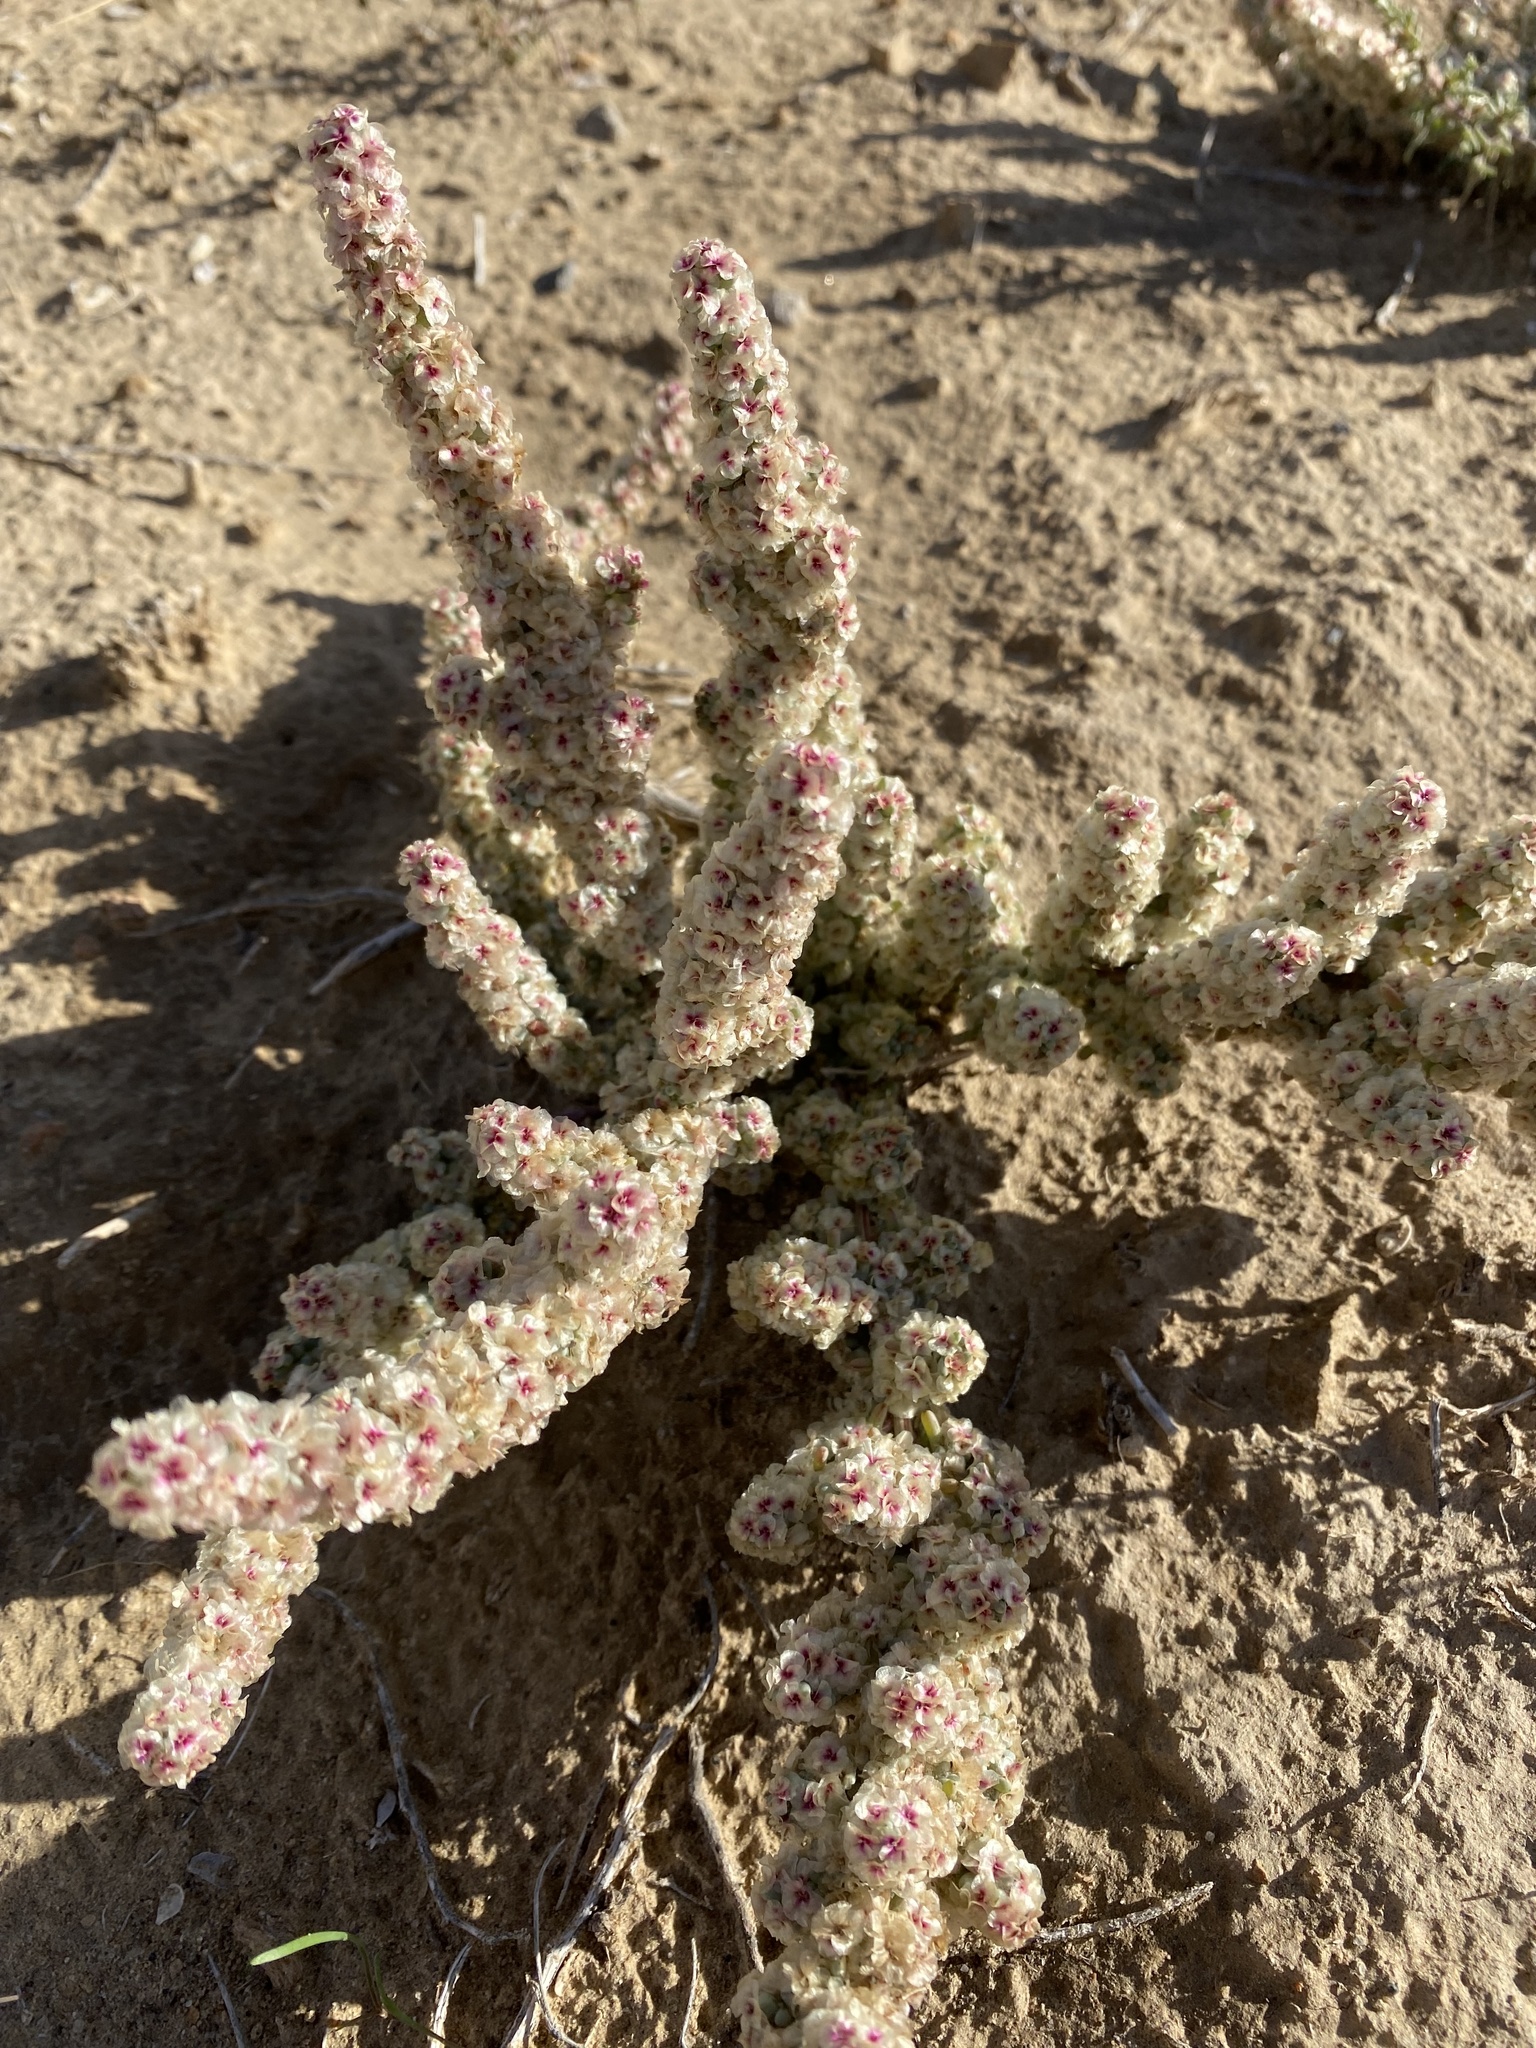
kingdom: Plantae
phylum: Tracheophyta
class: Magnoliopsida
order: Caryophyllales
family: Amaranthaceae
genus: Halogeton
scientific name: Halogeton glomeratus
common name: Saltlover
